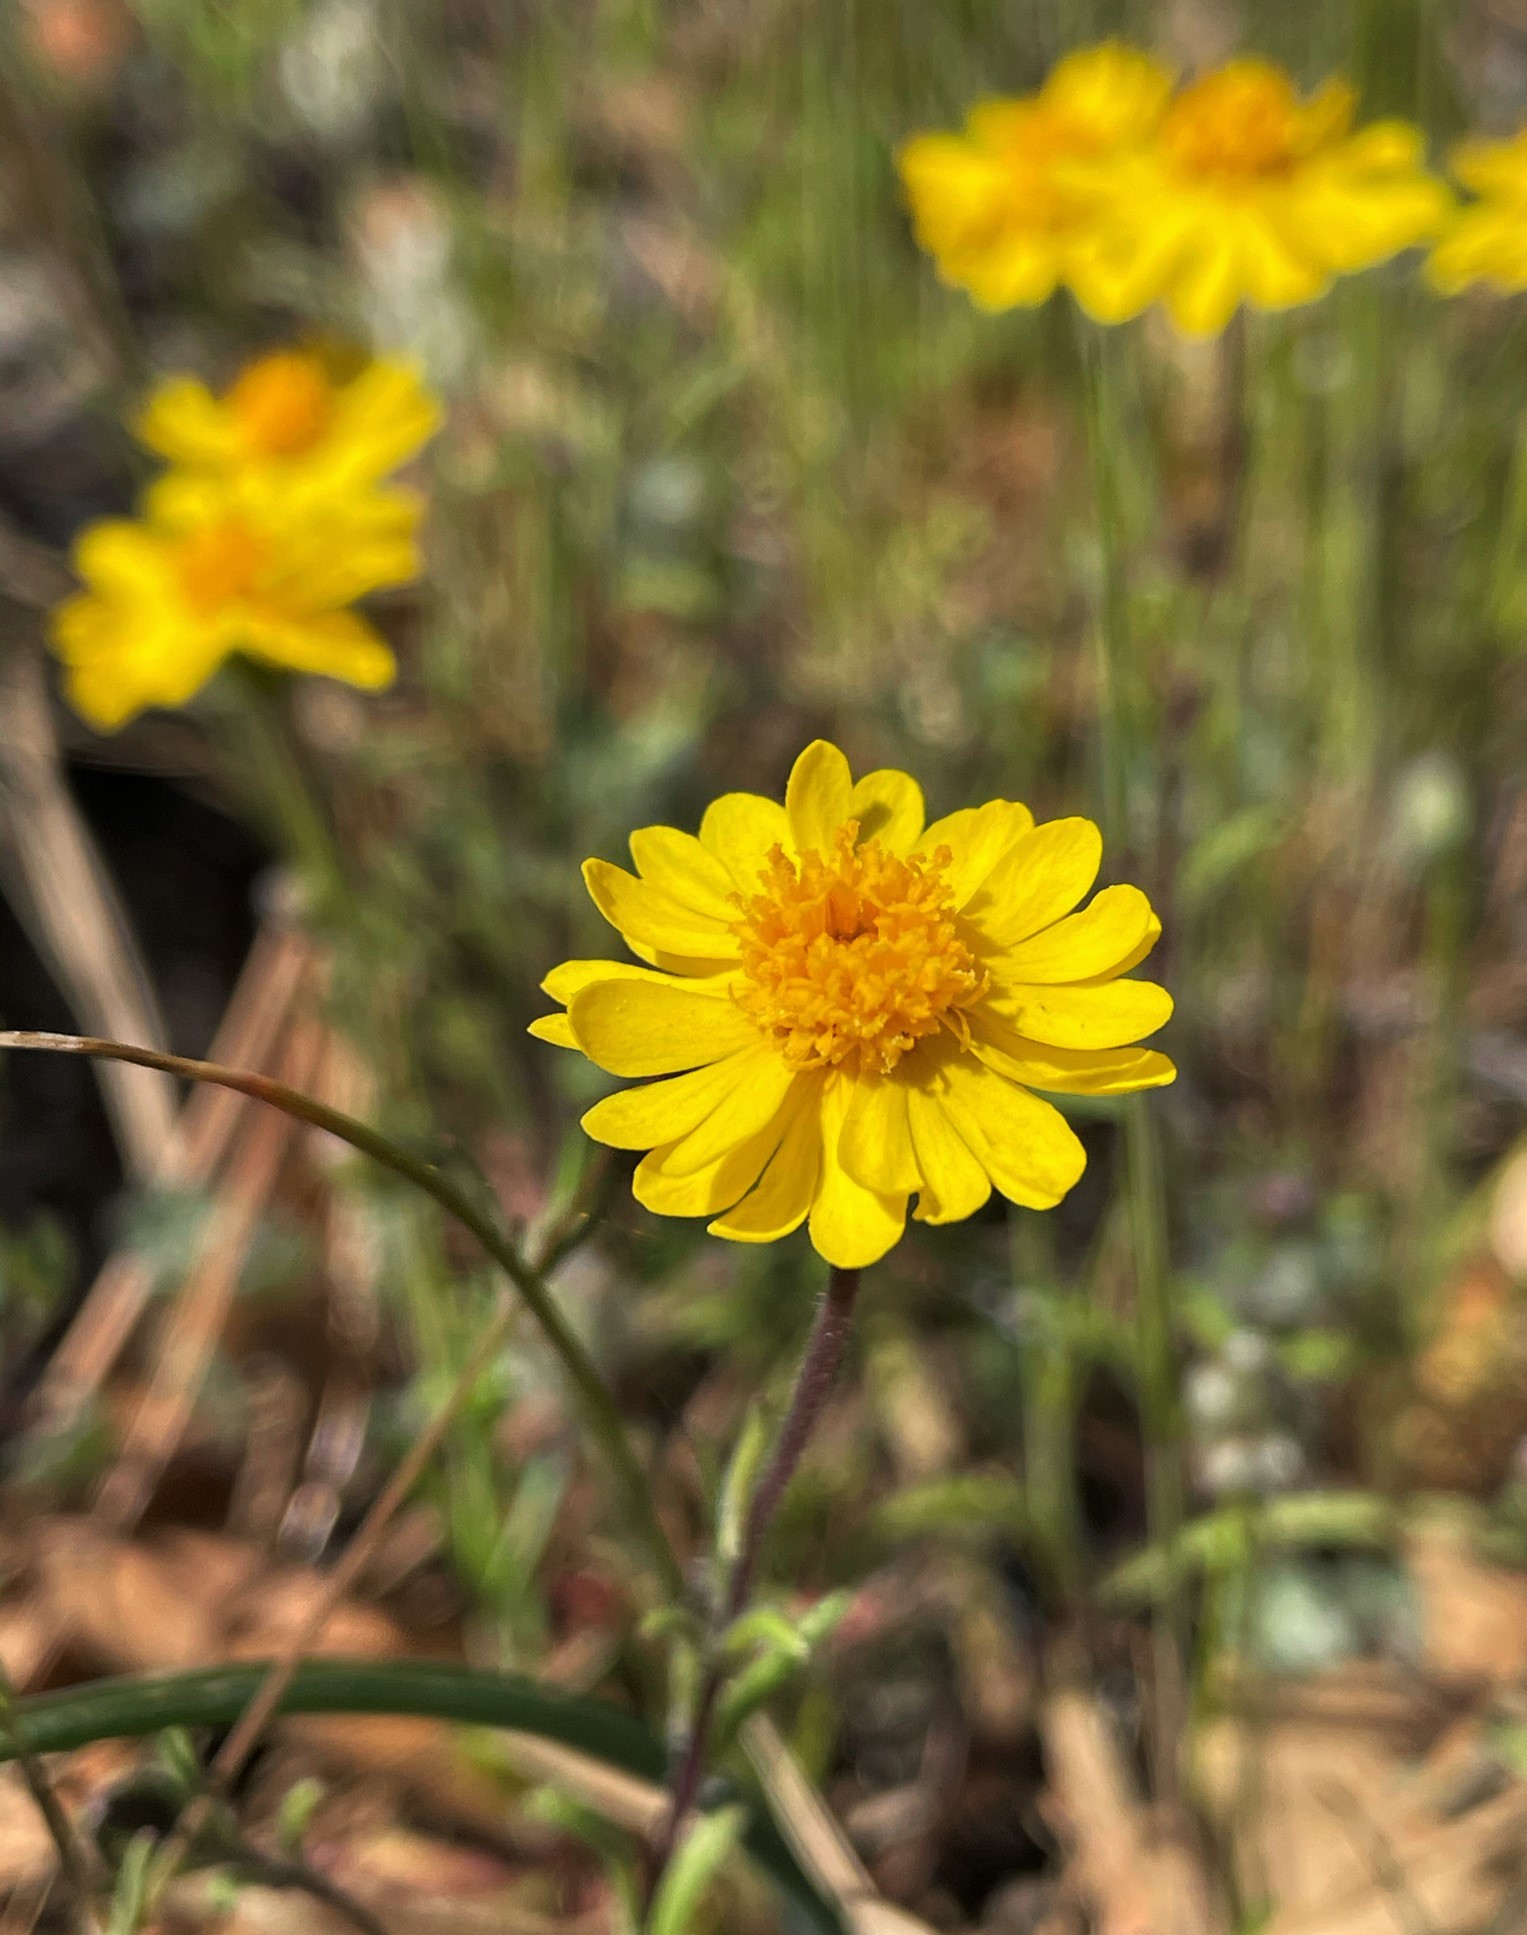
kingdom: Plantae
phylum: Tracheophyta
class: Magnoliopsida
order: Asterales
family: Asteraceae
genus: Harmonia
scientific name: Harmonia nutans
